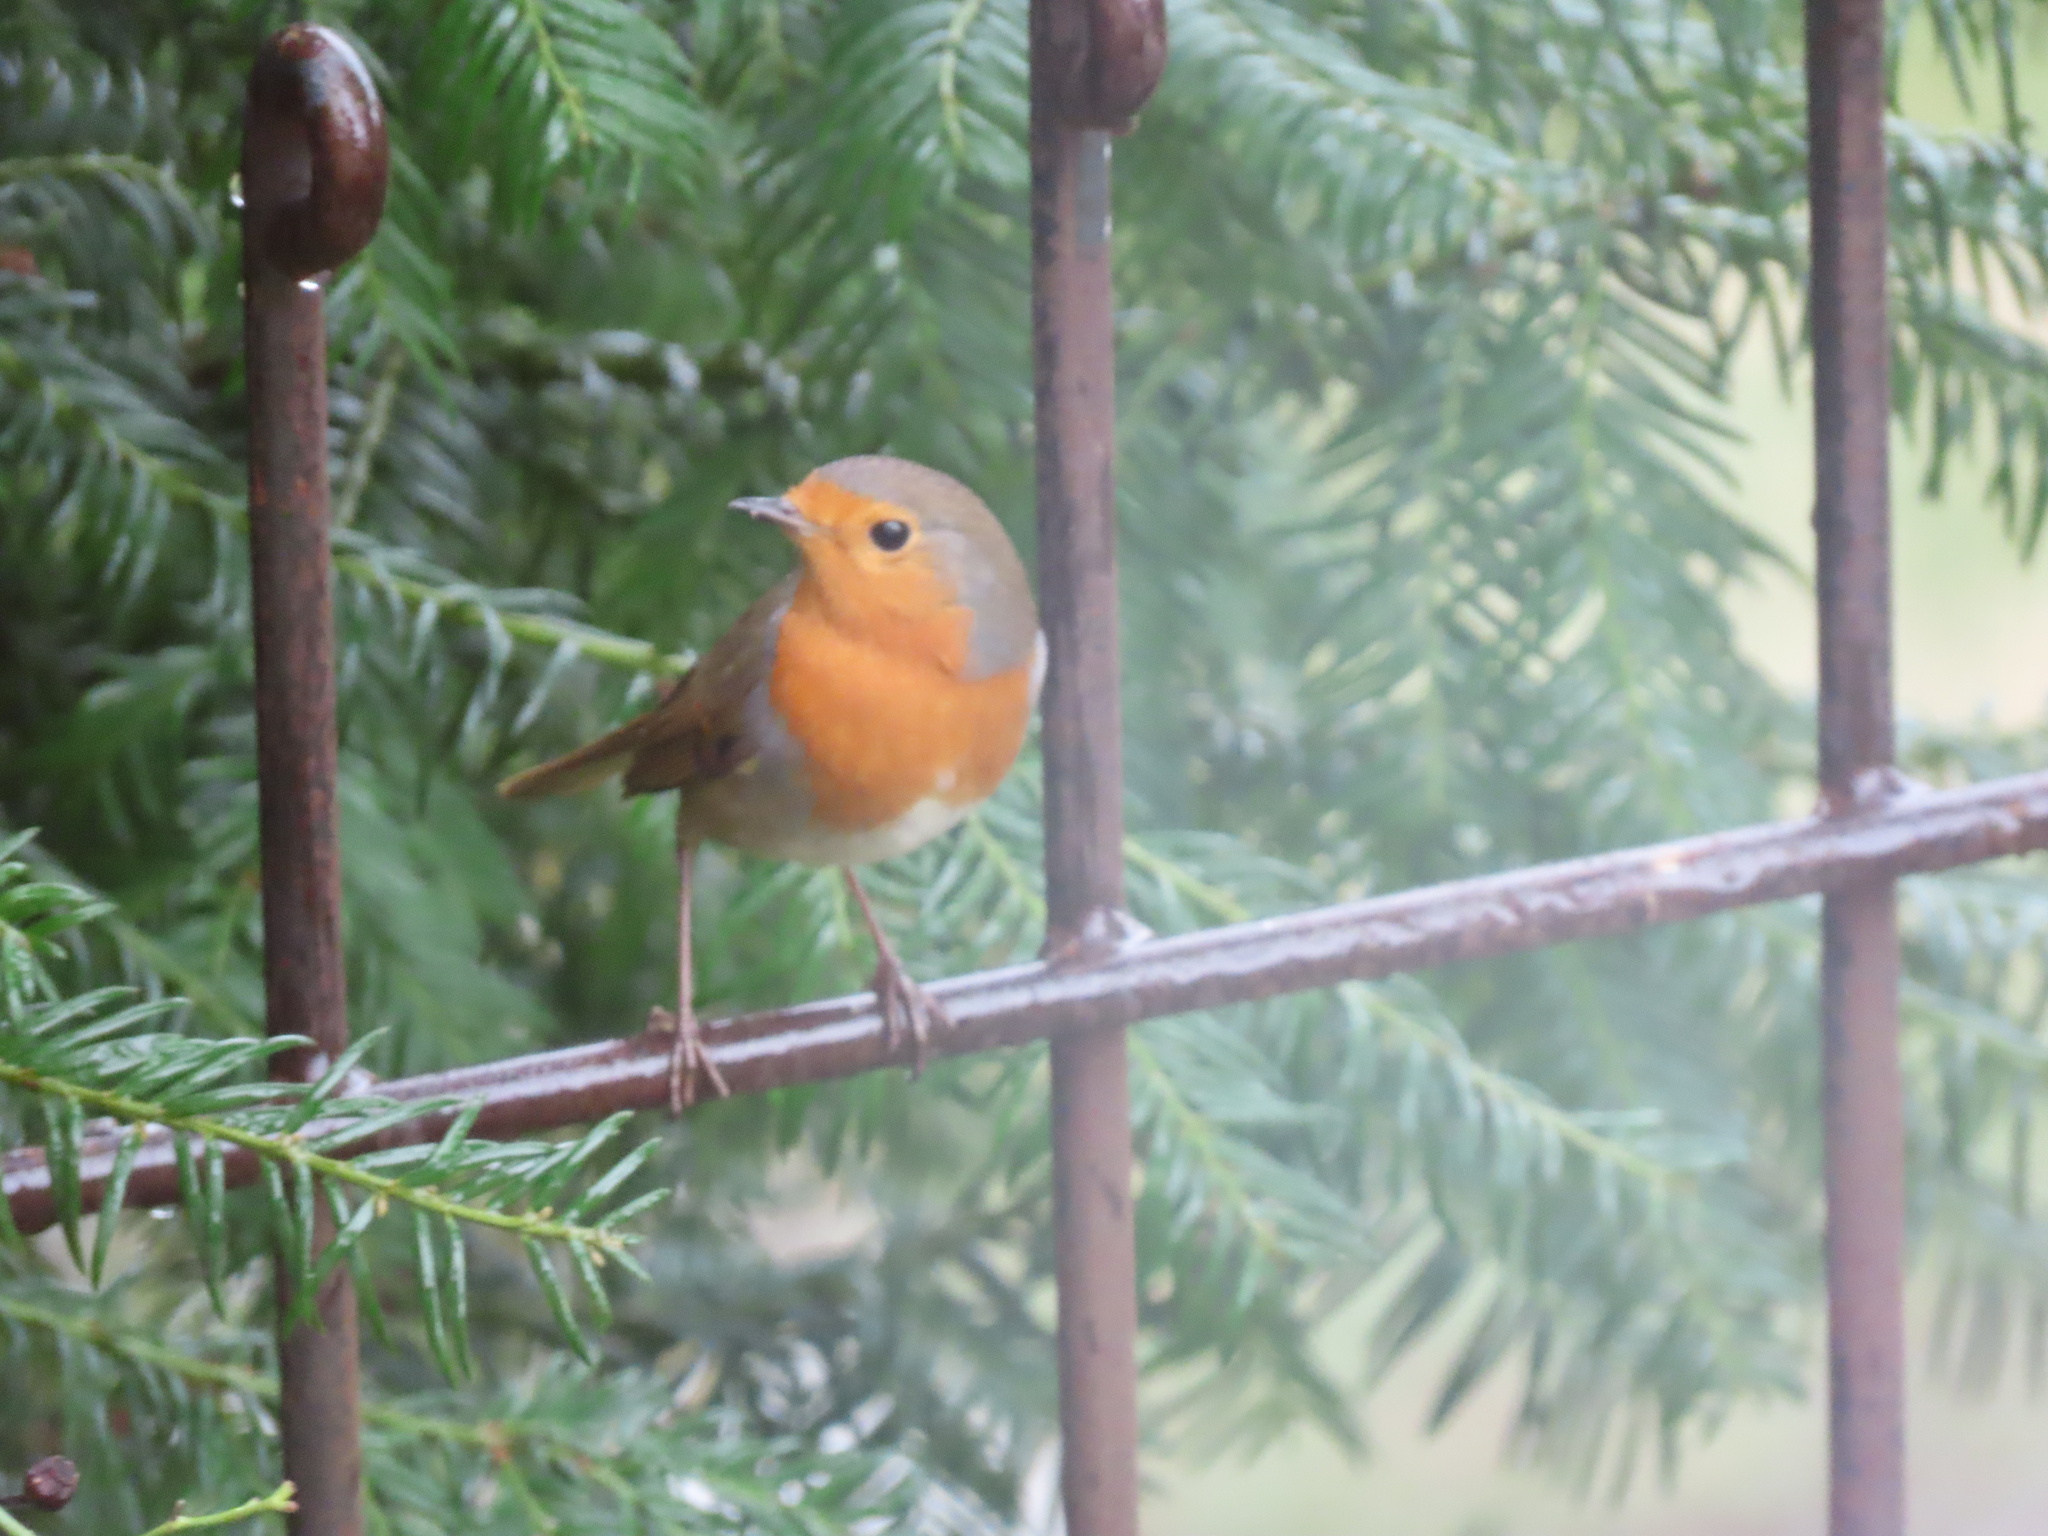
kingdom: Animalia
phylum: Chordata
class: Aves
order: Passeriformes
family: Muscicapidae
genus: Erithacus
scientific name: Erithacus rubecula
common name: European robin
